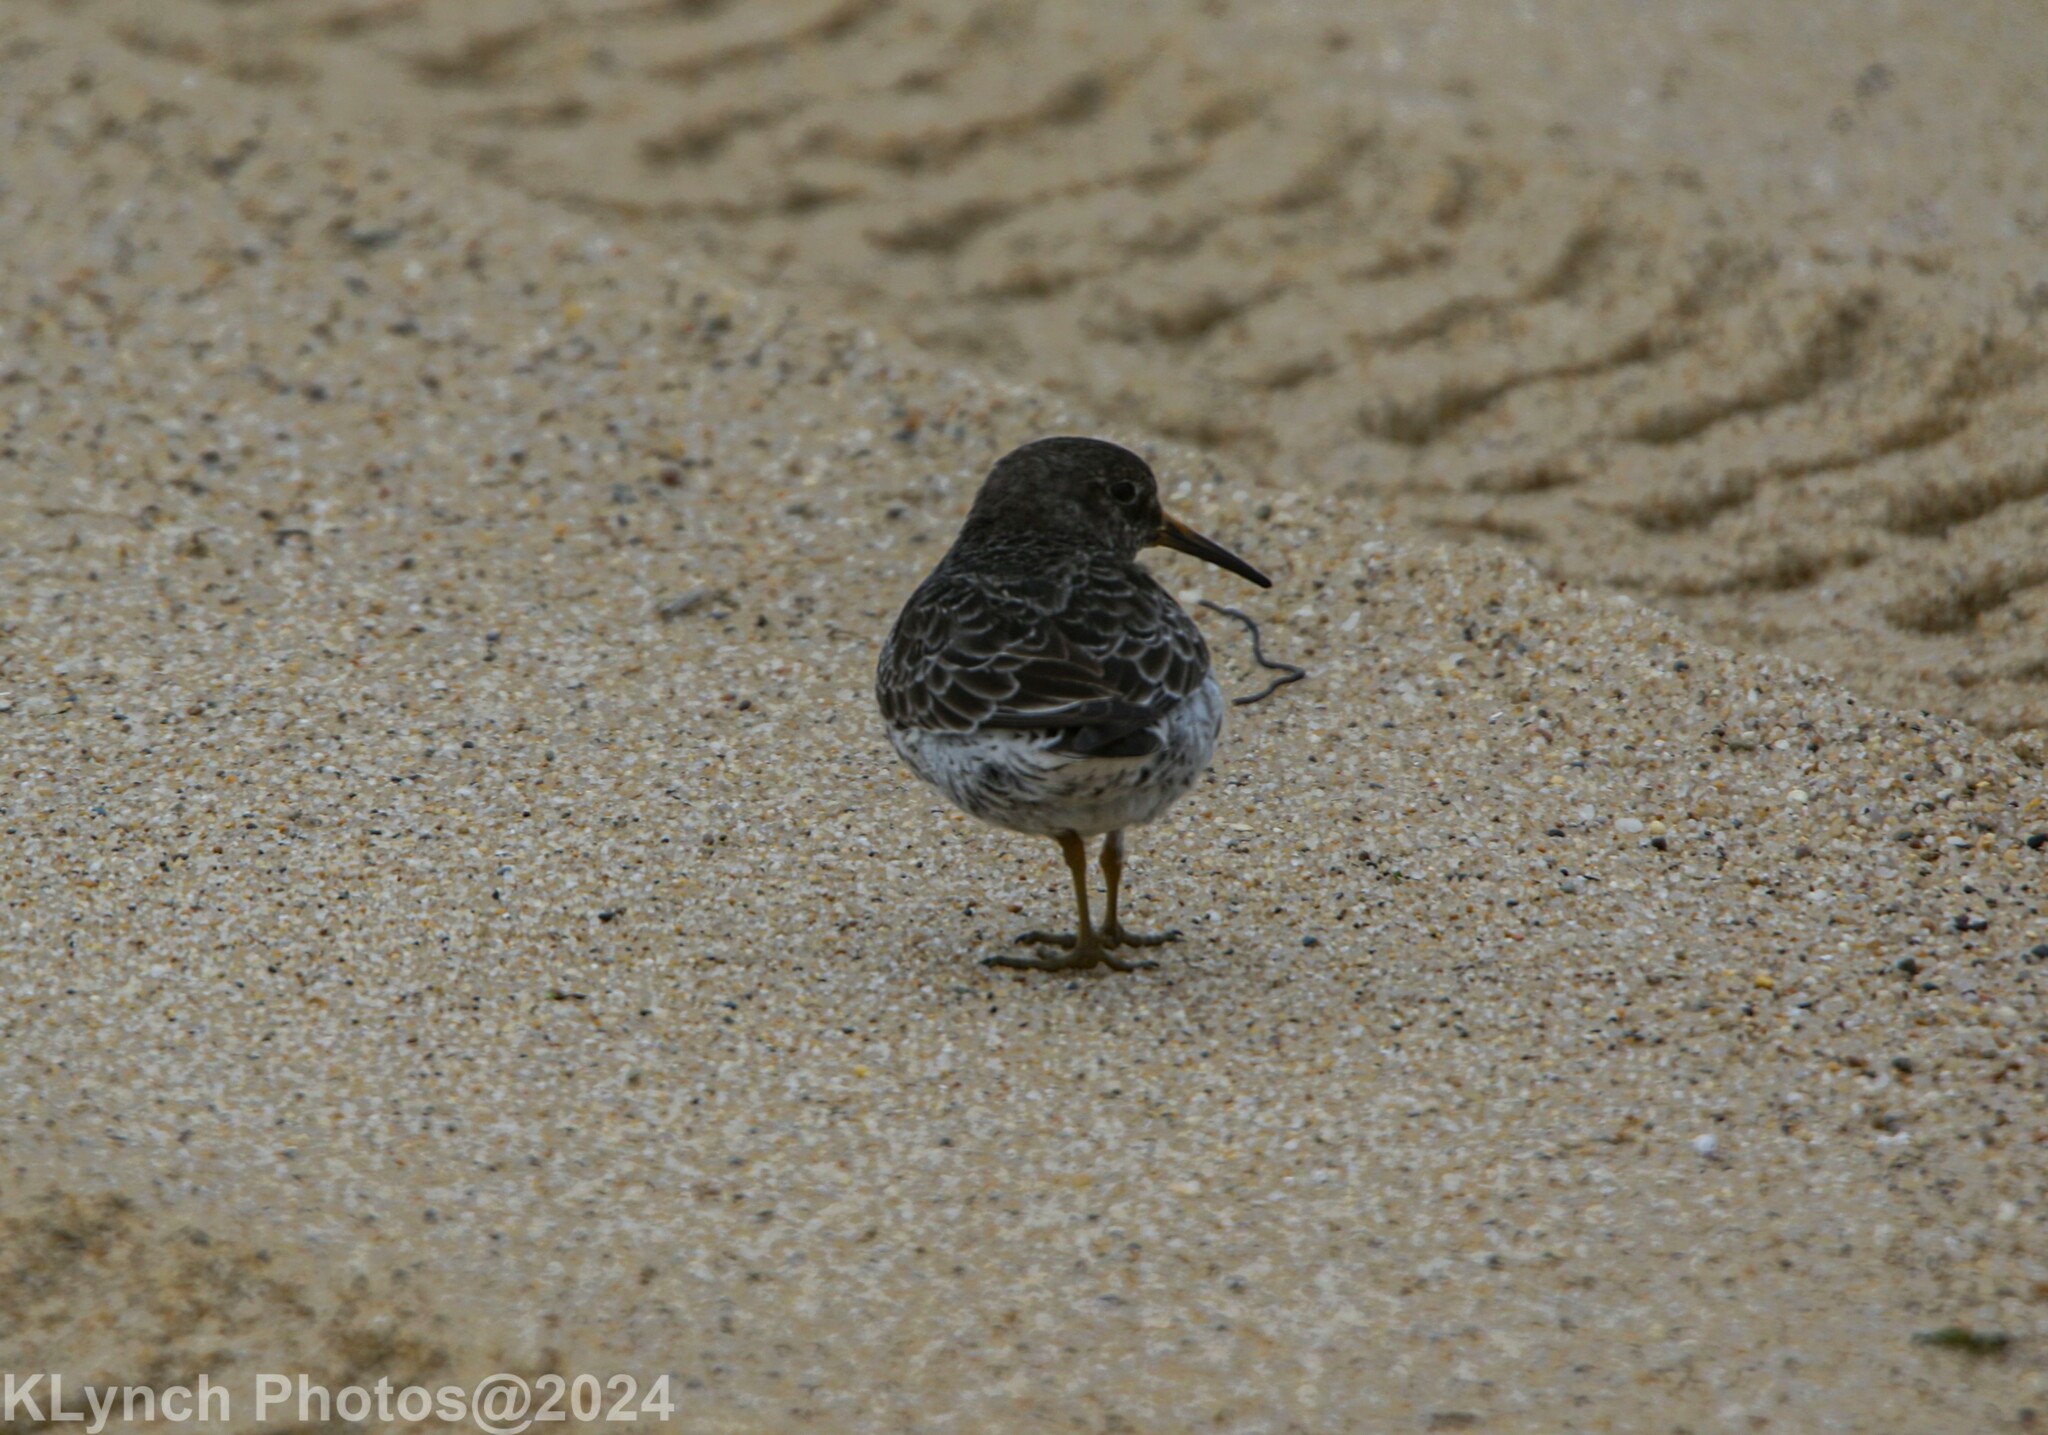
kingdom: Animalia
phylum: Chordata
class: Aves
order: Charadriiformes
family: Scolopacidae
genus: Calidris
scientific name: Calidris maritima
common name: Purple sandpiper
